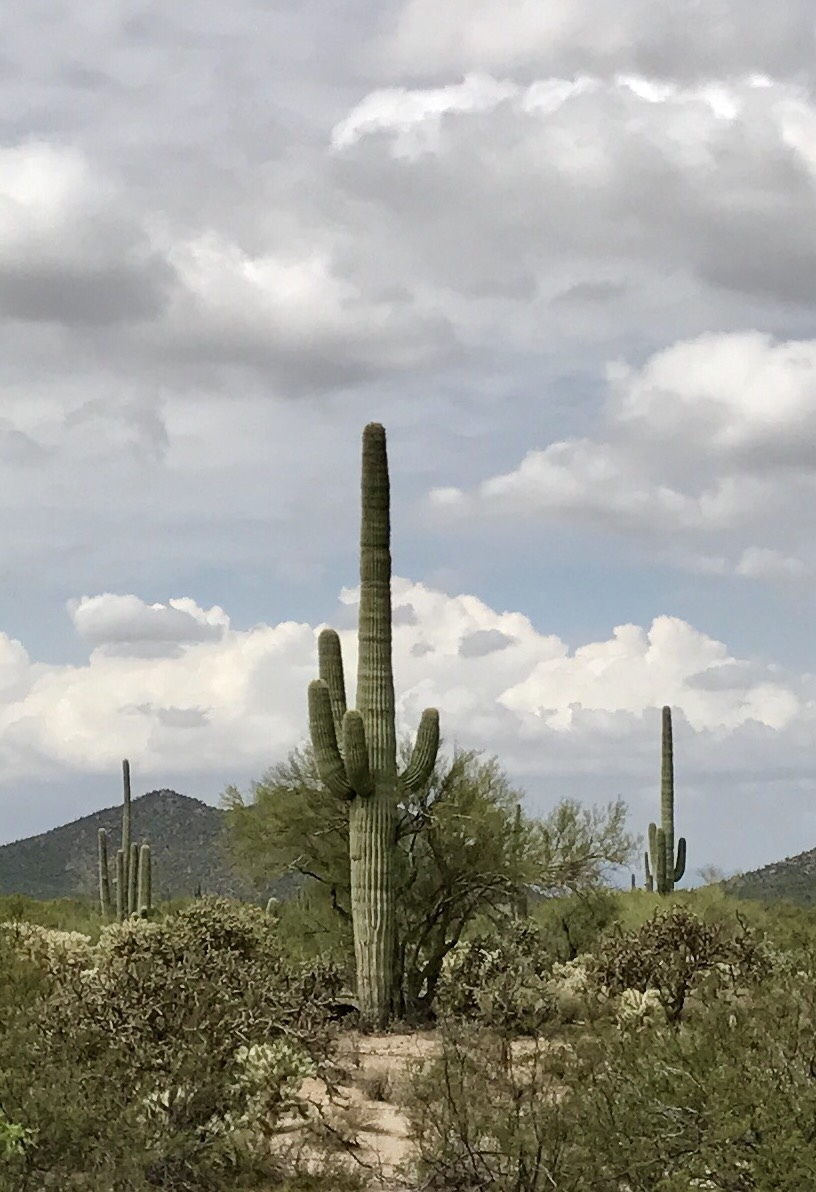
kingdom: Plantae
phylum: Tracheophyta
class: Magnoliopsida
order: Caryophyllales
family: Cactaceae
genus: Carnegiea
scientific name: Carnegiea gigantea
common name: Saguaro
